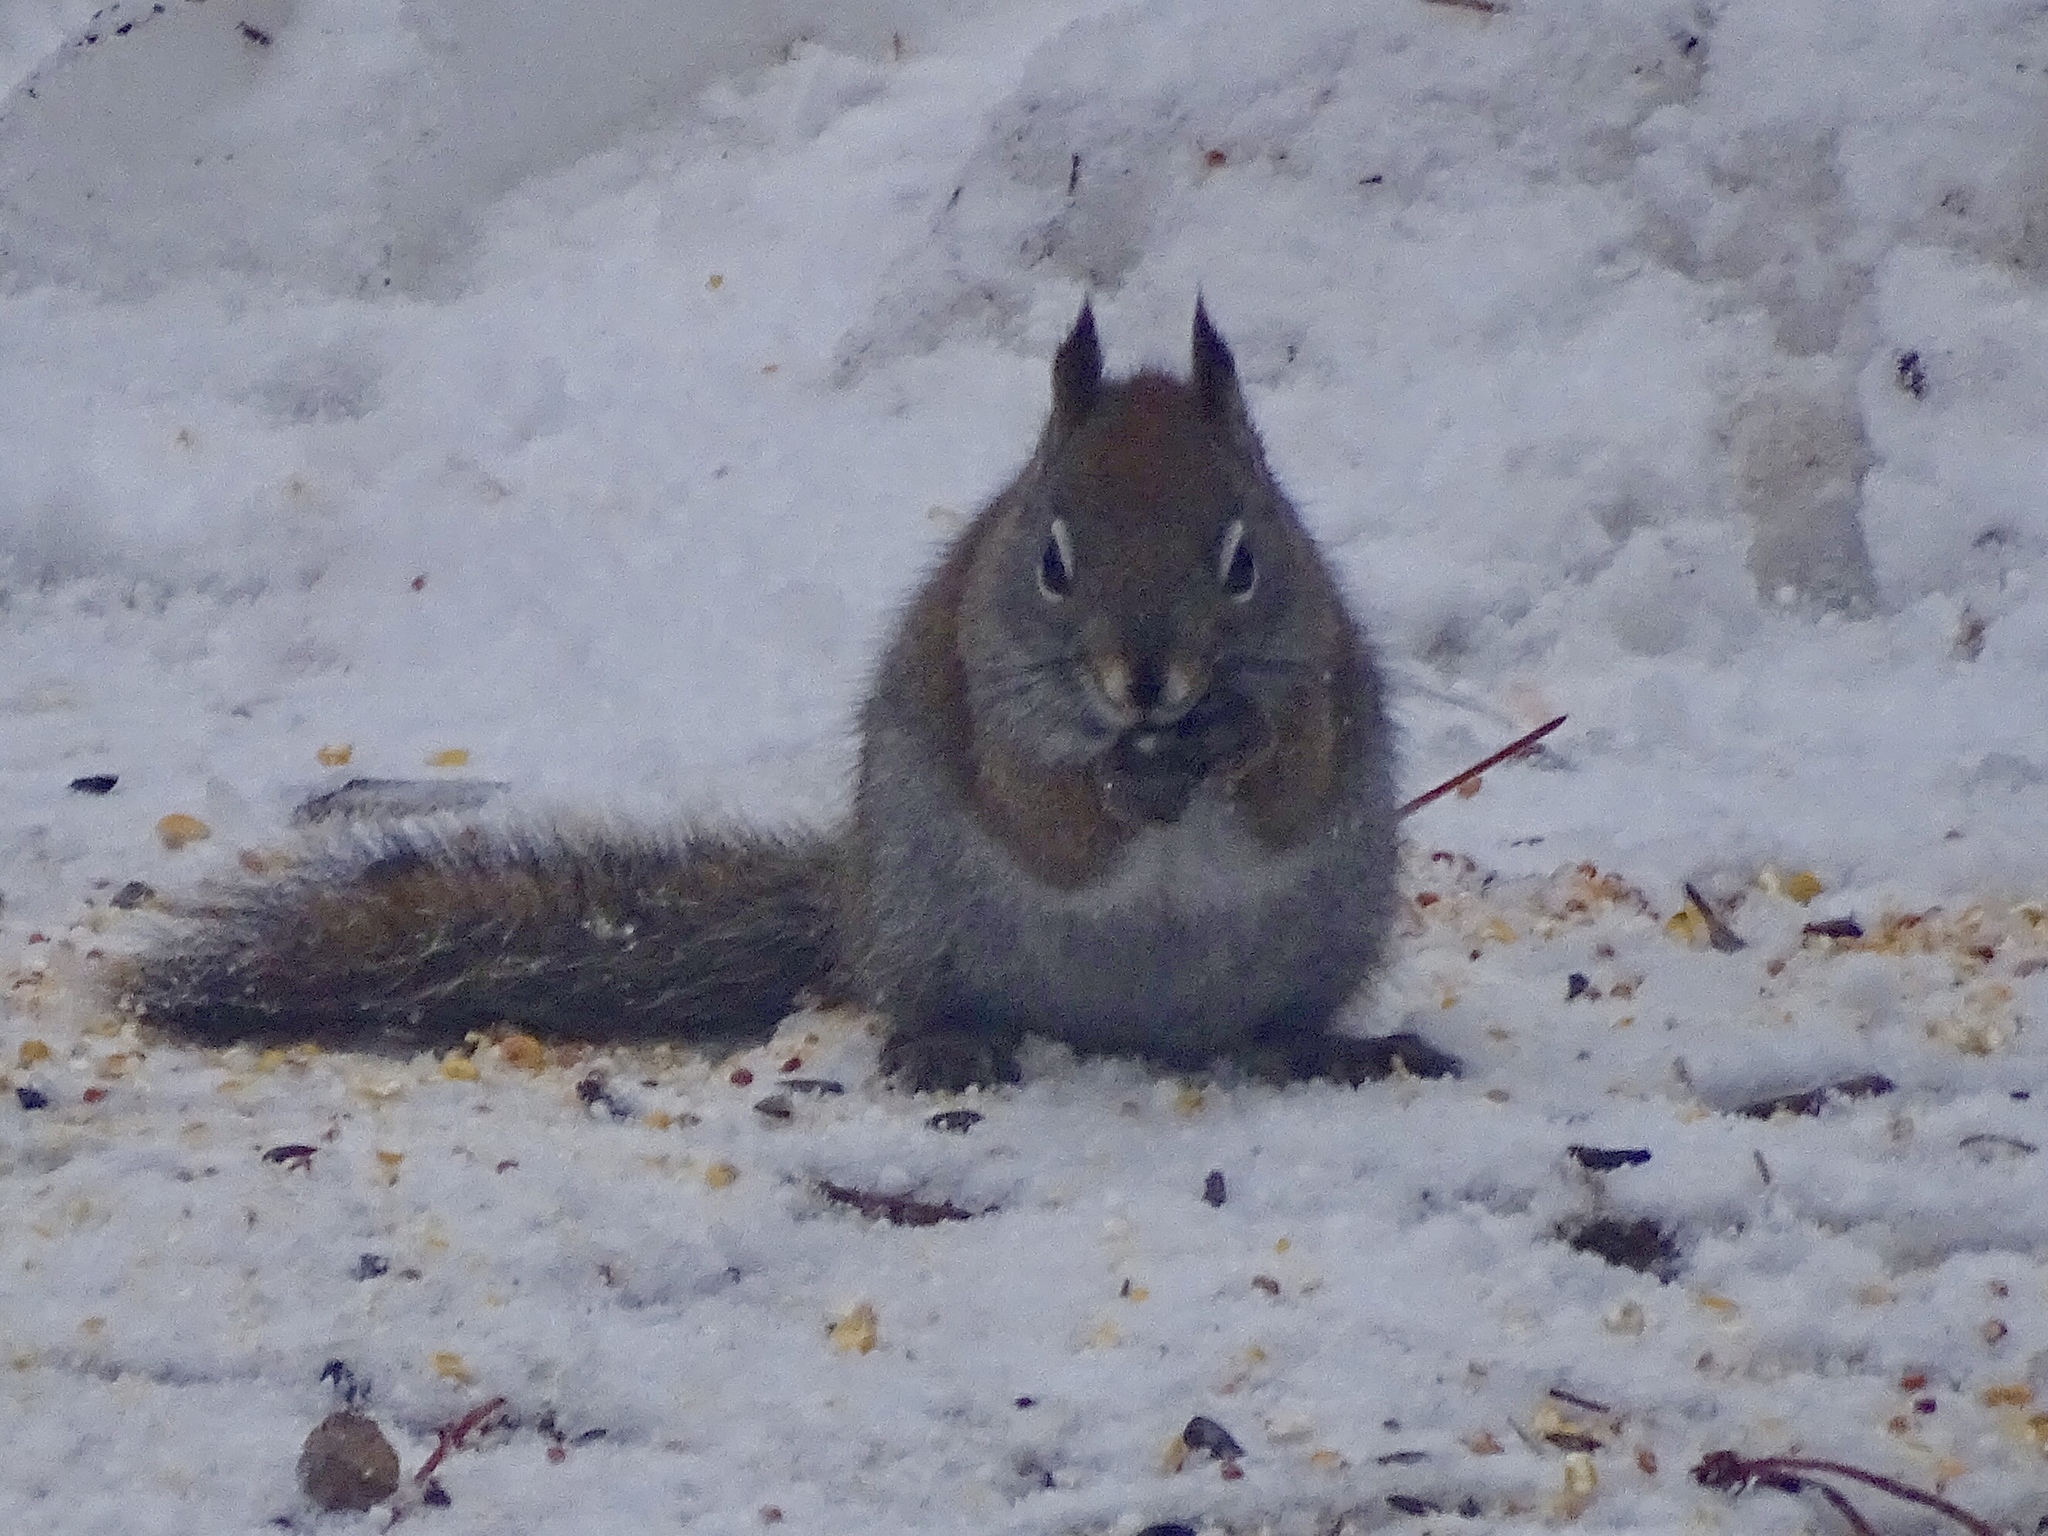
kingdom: Animalia
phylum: Chordata
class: Mammalia
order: Rodentia
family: Sciuridae
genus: Tamiasciurus
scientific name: Tamiasciurus hudsonicus
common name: Red squirrel
